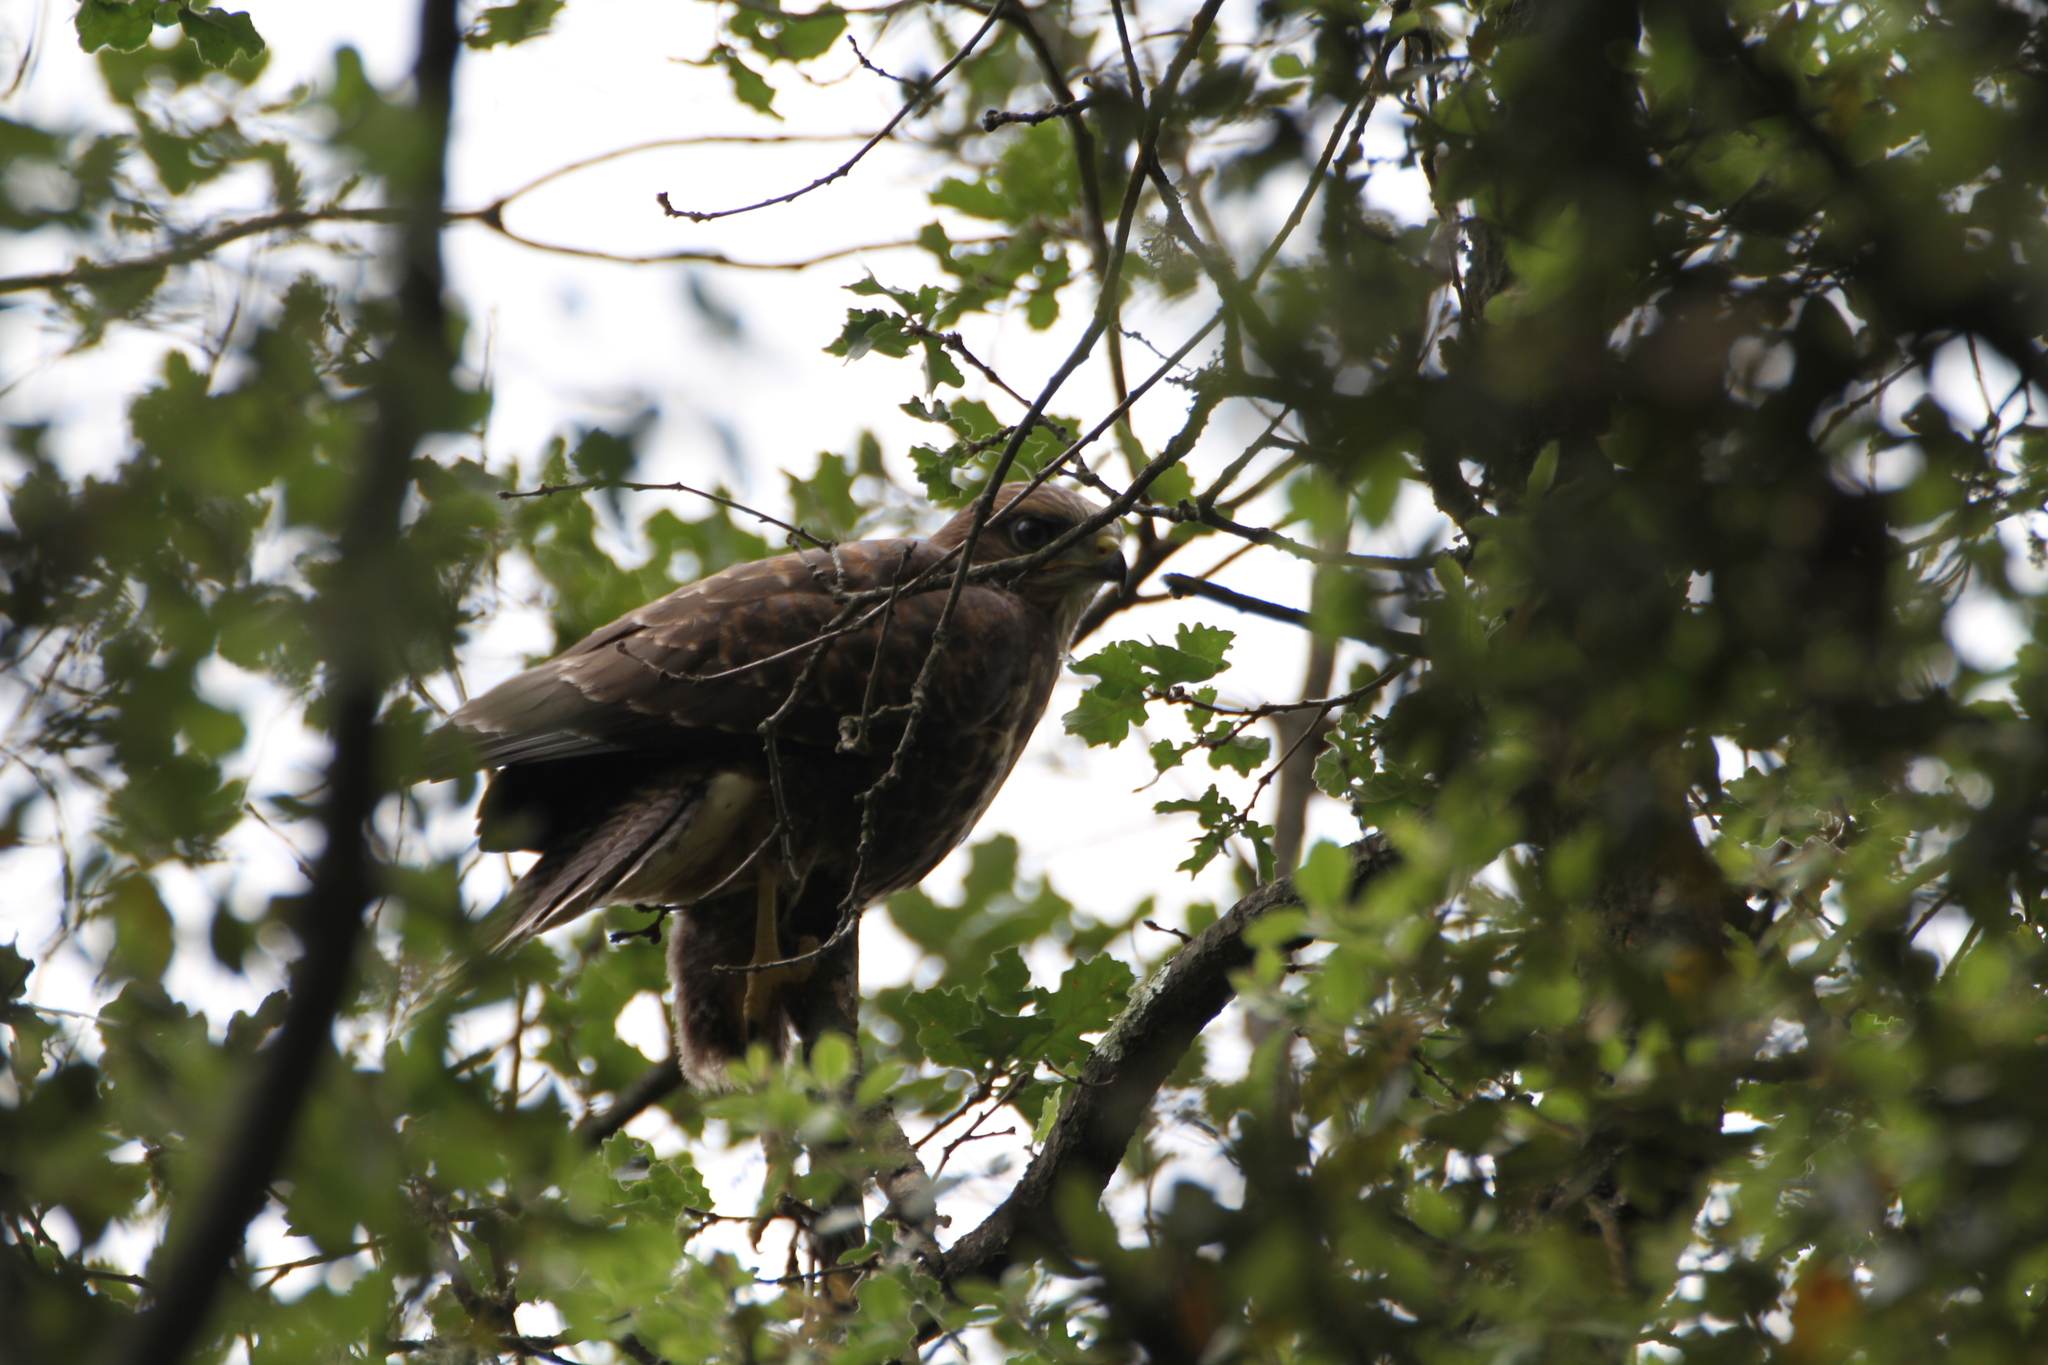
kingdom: Animalia
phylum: Chordata
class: Aves
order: Accipitriformes
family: Accipitridae
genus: Buteo
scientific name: Buteo buteo
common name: Common buzzard
